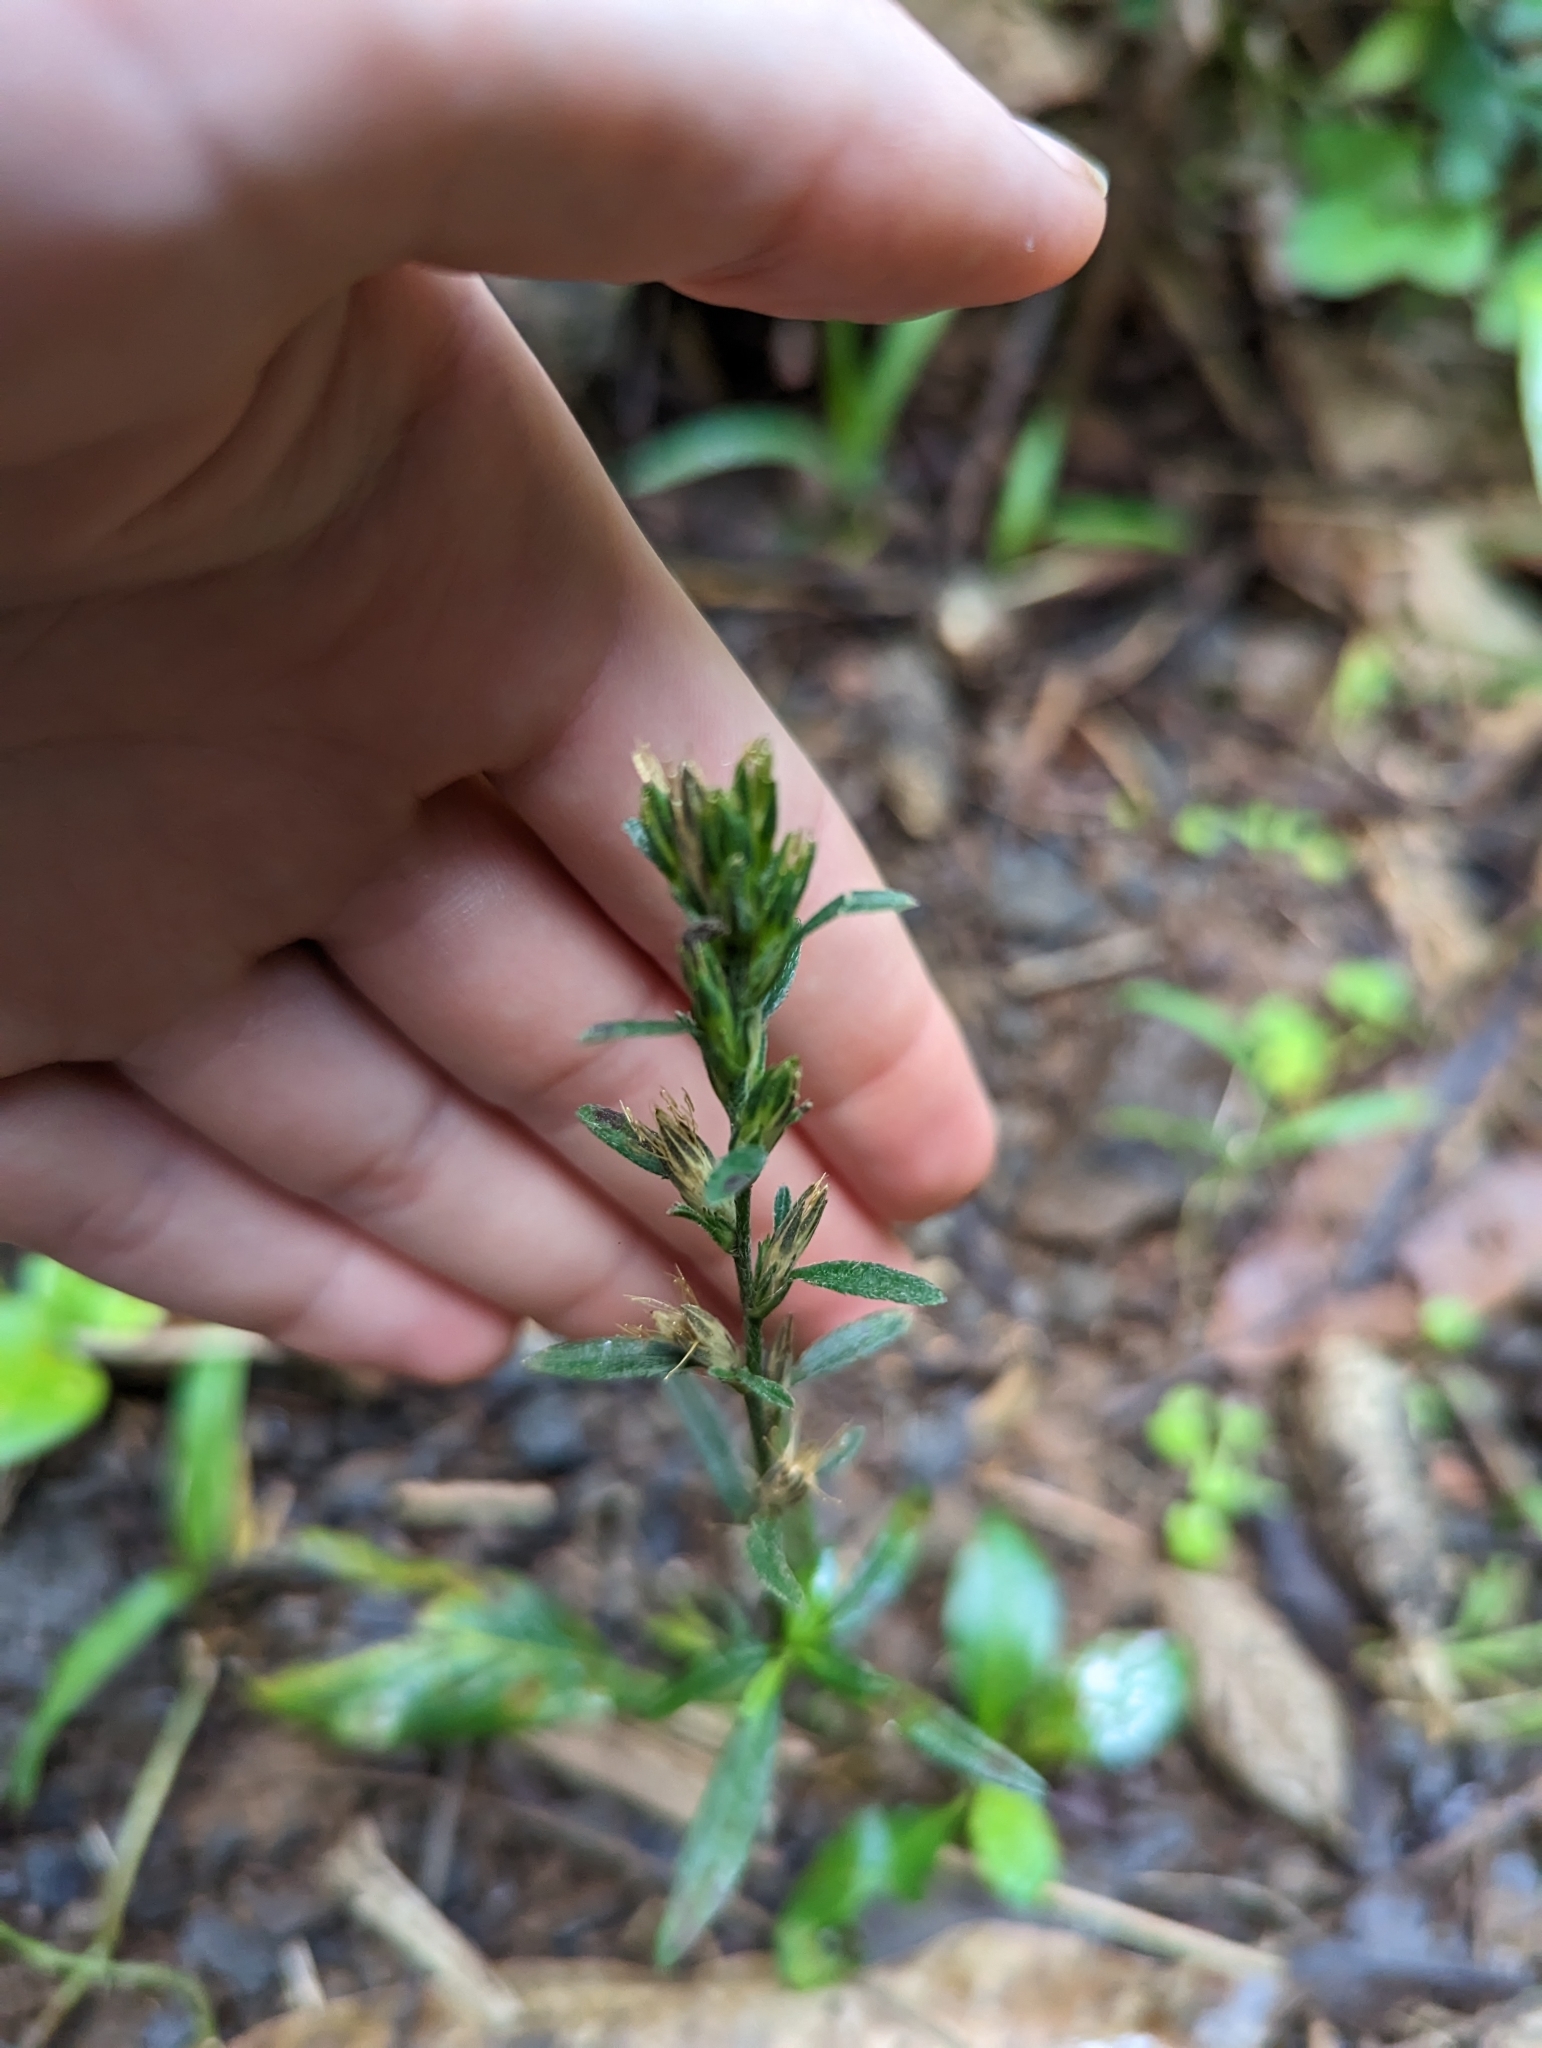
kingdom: Plantae
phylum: Tracheophyta
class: Magnoliopsida
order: Asterales
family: Asteraceae
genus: Pseudelephantopus
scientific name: Pseudelephantopus spicatus
